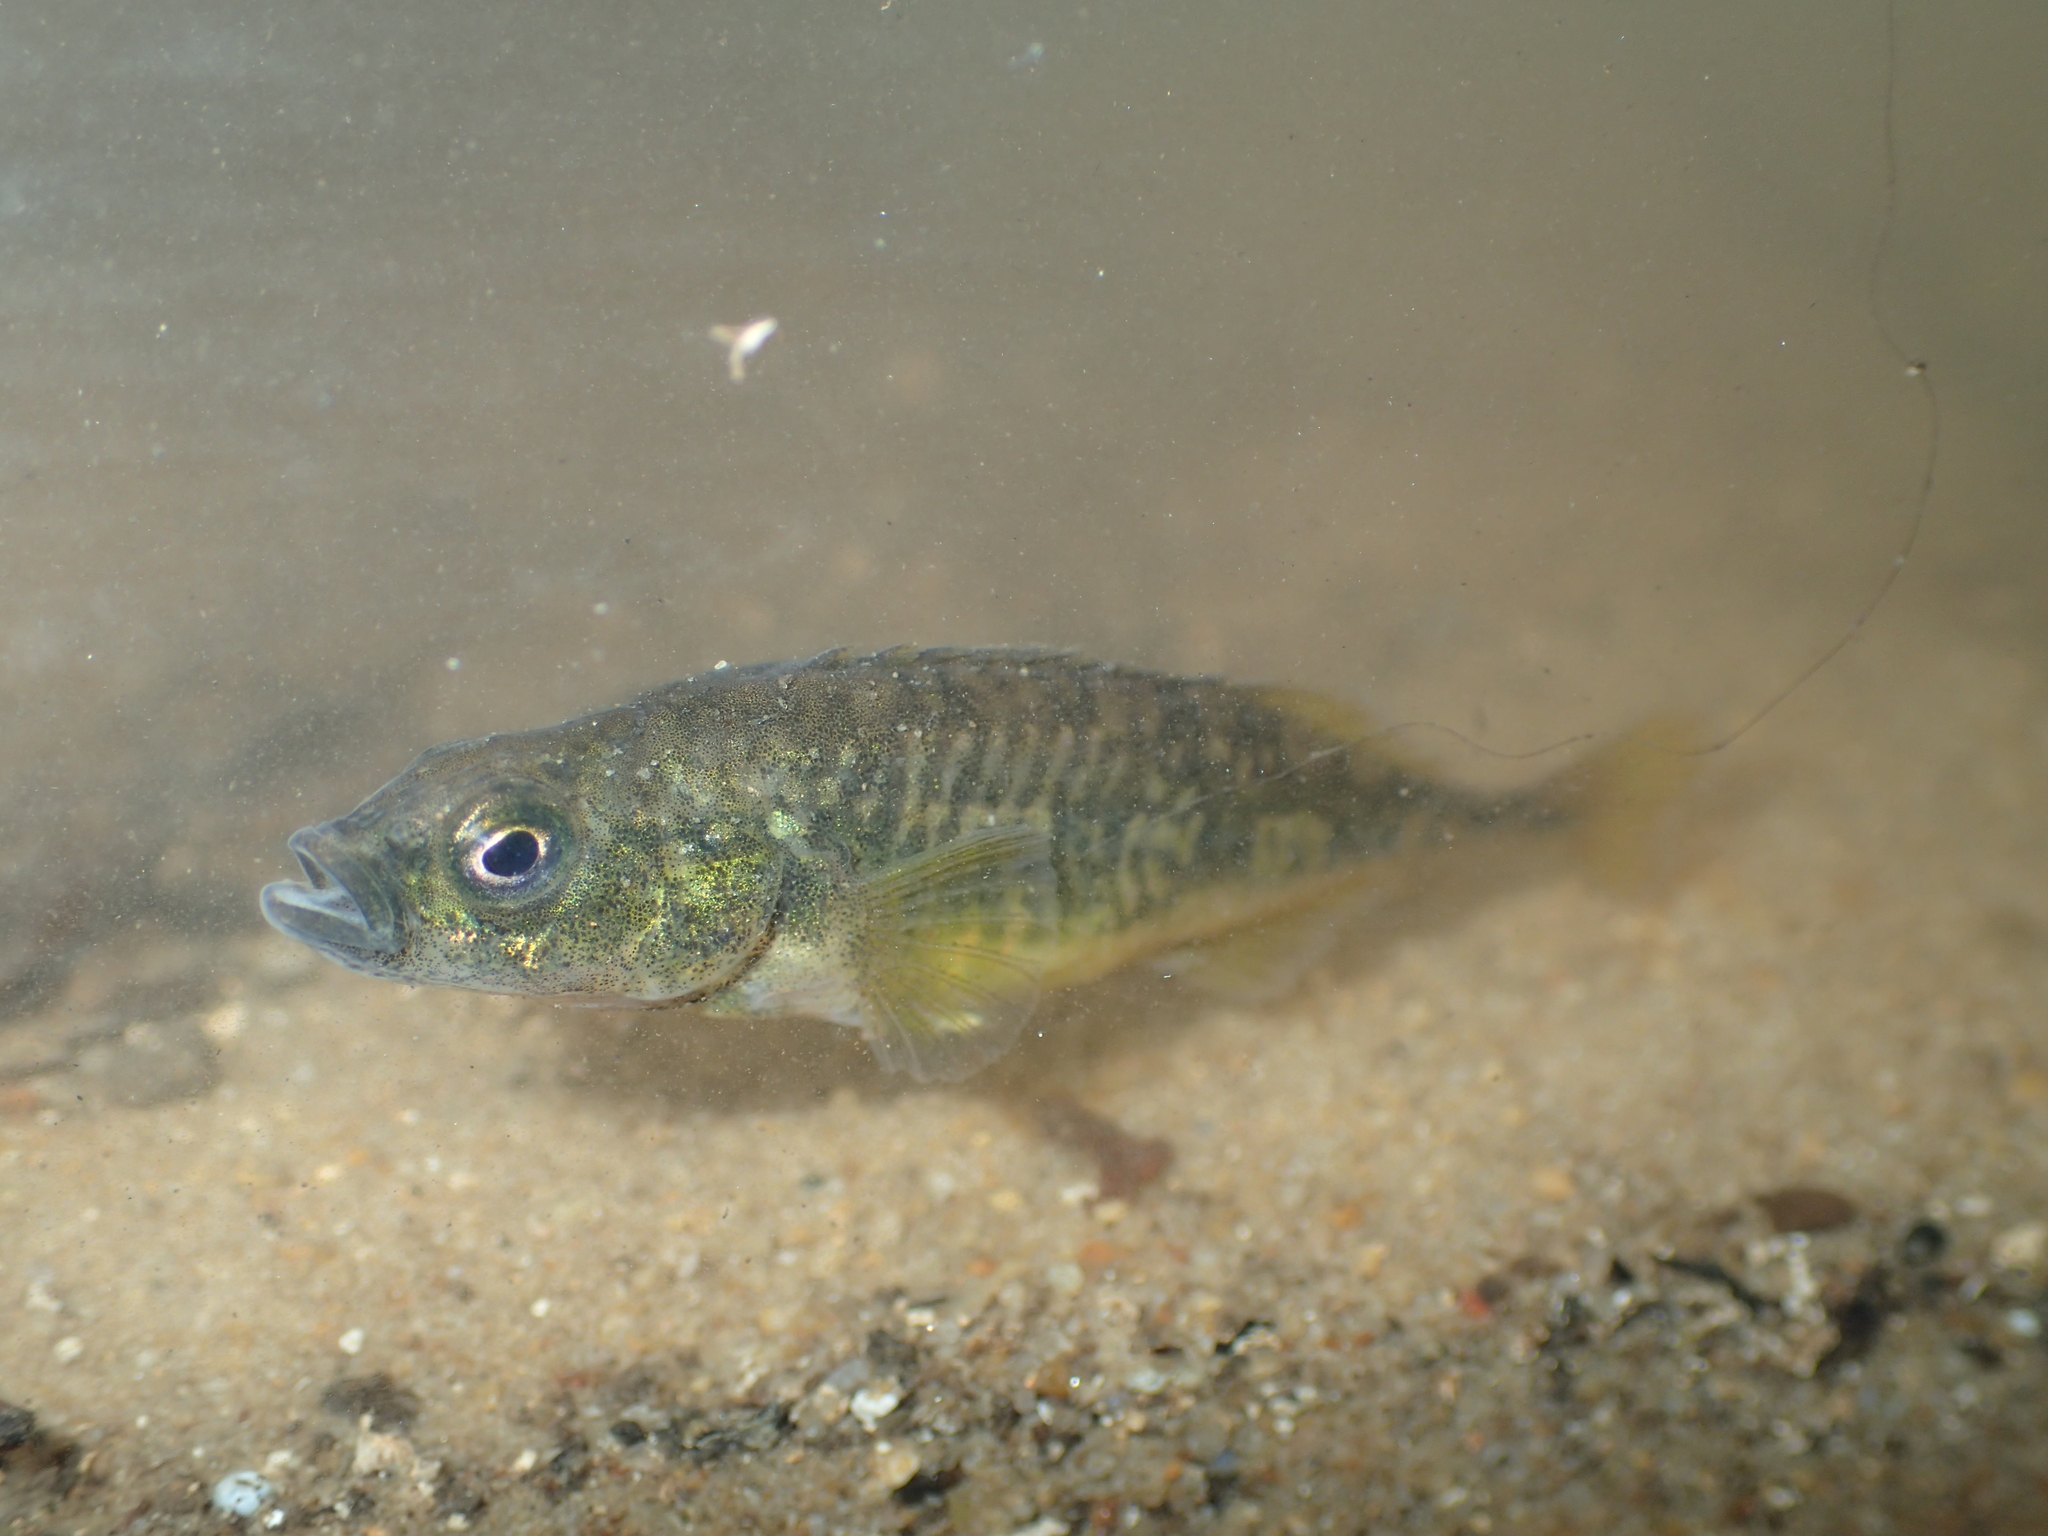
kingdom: Animalia
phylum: Chordata
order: Gasterosteiformes
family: Gasterosteidae
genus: Pungitius
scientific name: Pungitius laevis
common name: Smoothtail ninespine stickleback
